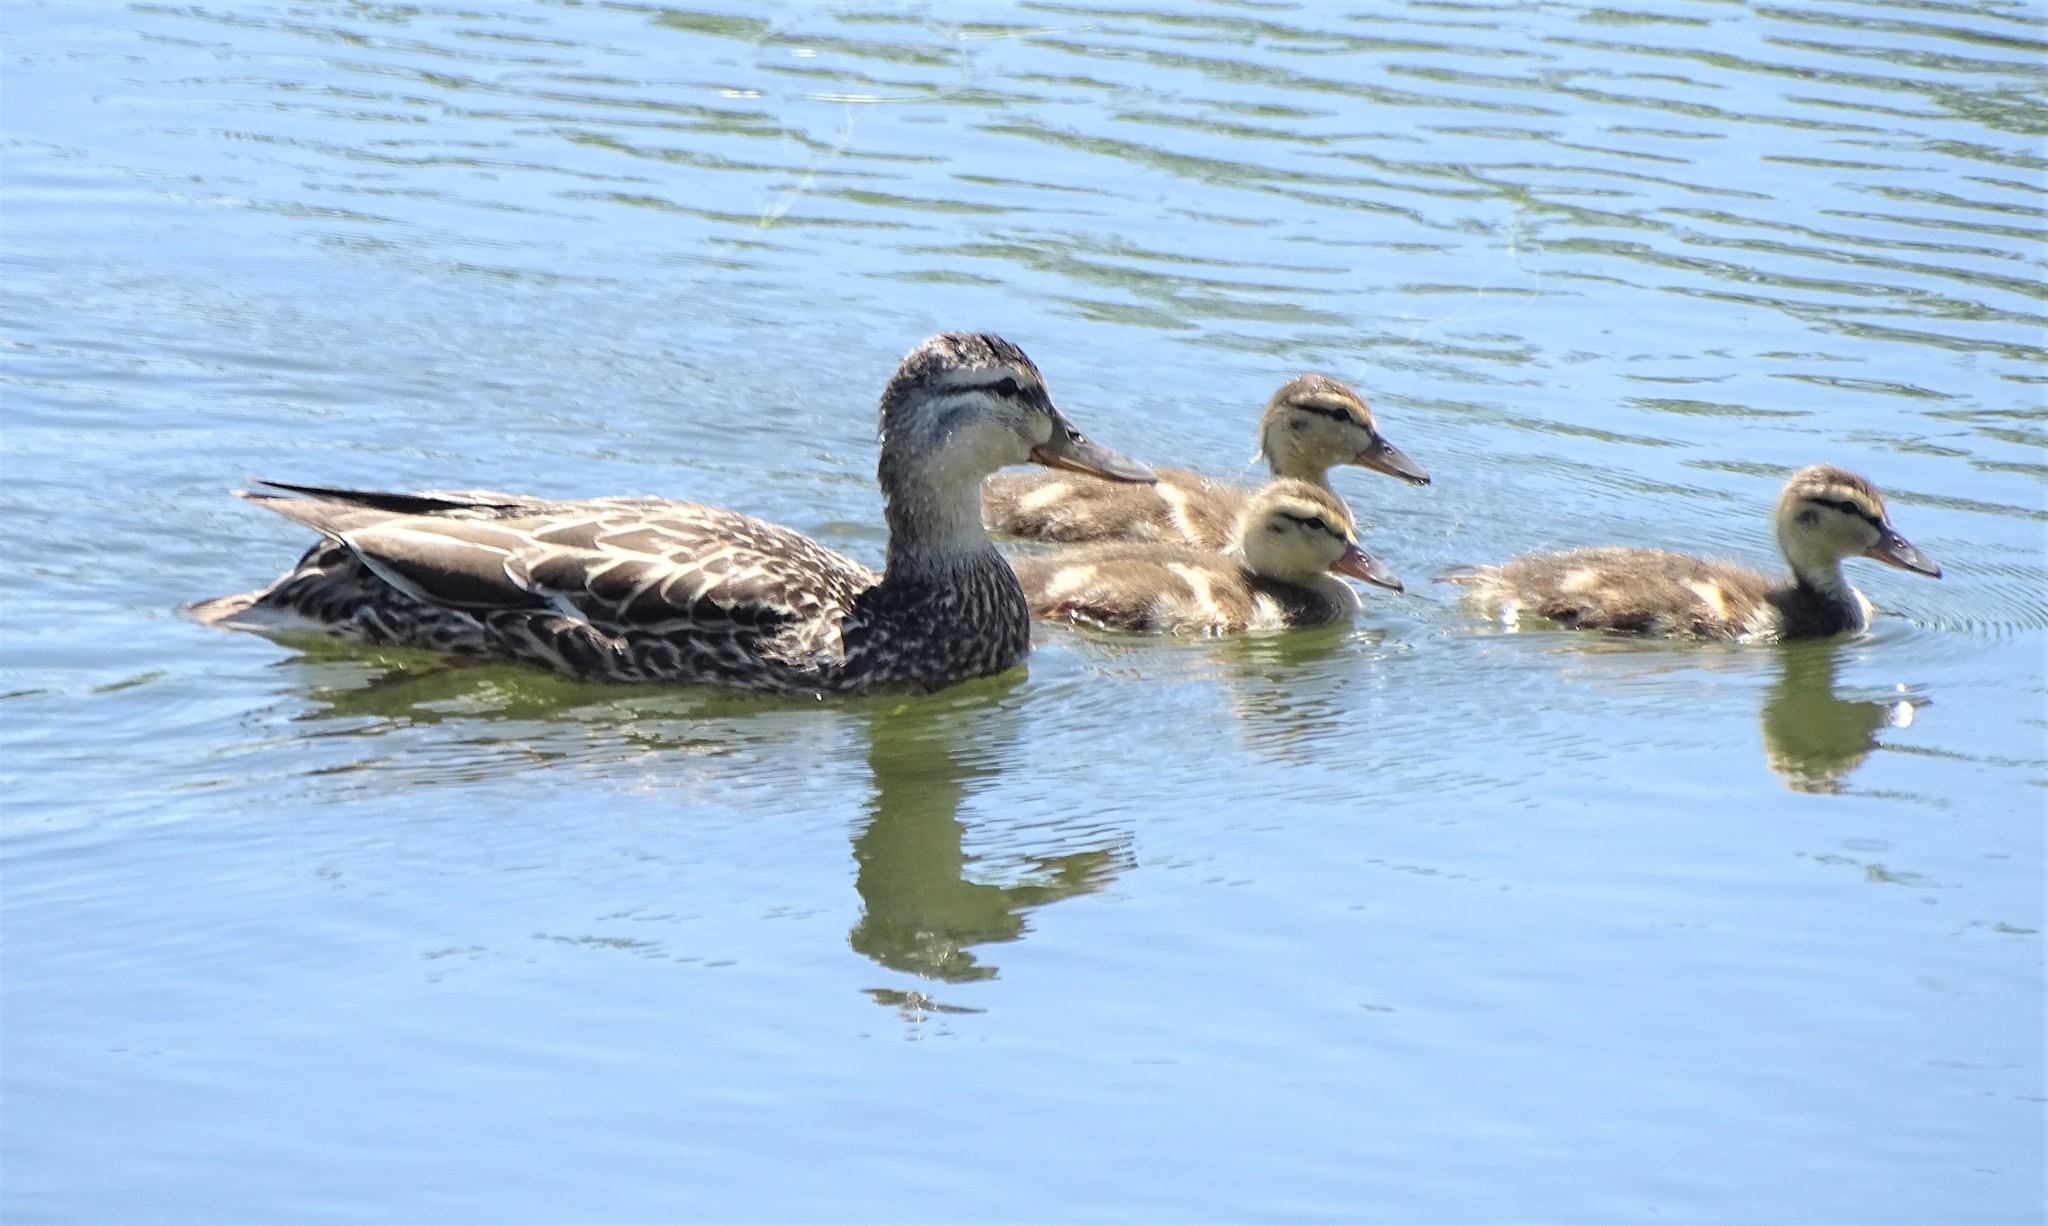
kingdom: Animalia
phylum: Chordata
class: Aves
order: Anseriformes
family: Anatidae
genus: Anas
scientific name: Anas platyrhynchos
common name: Mallard
